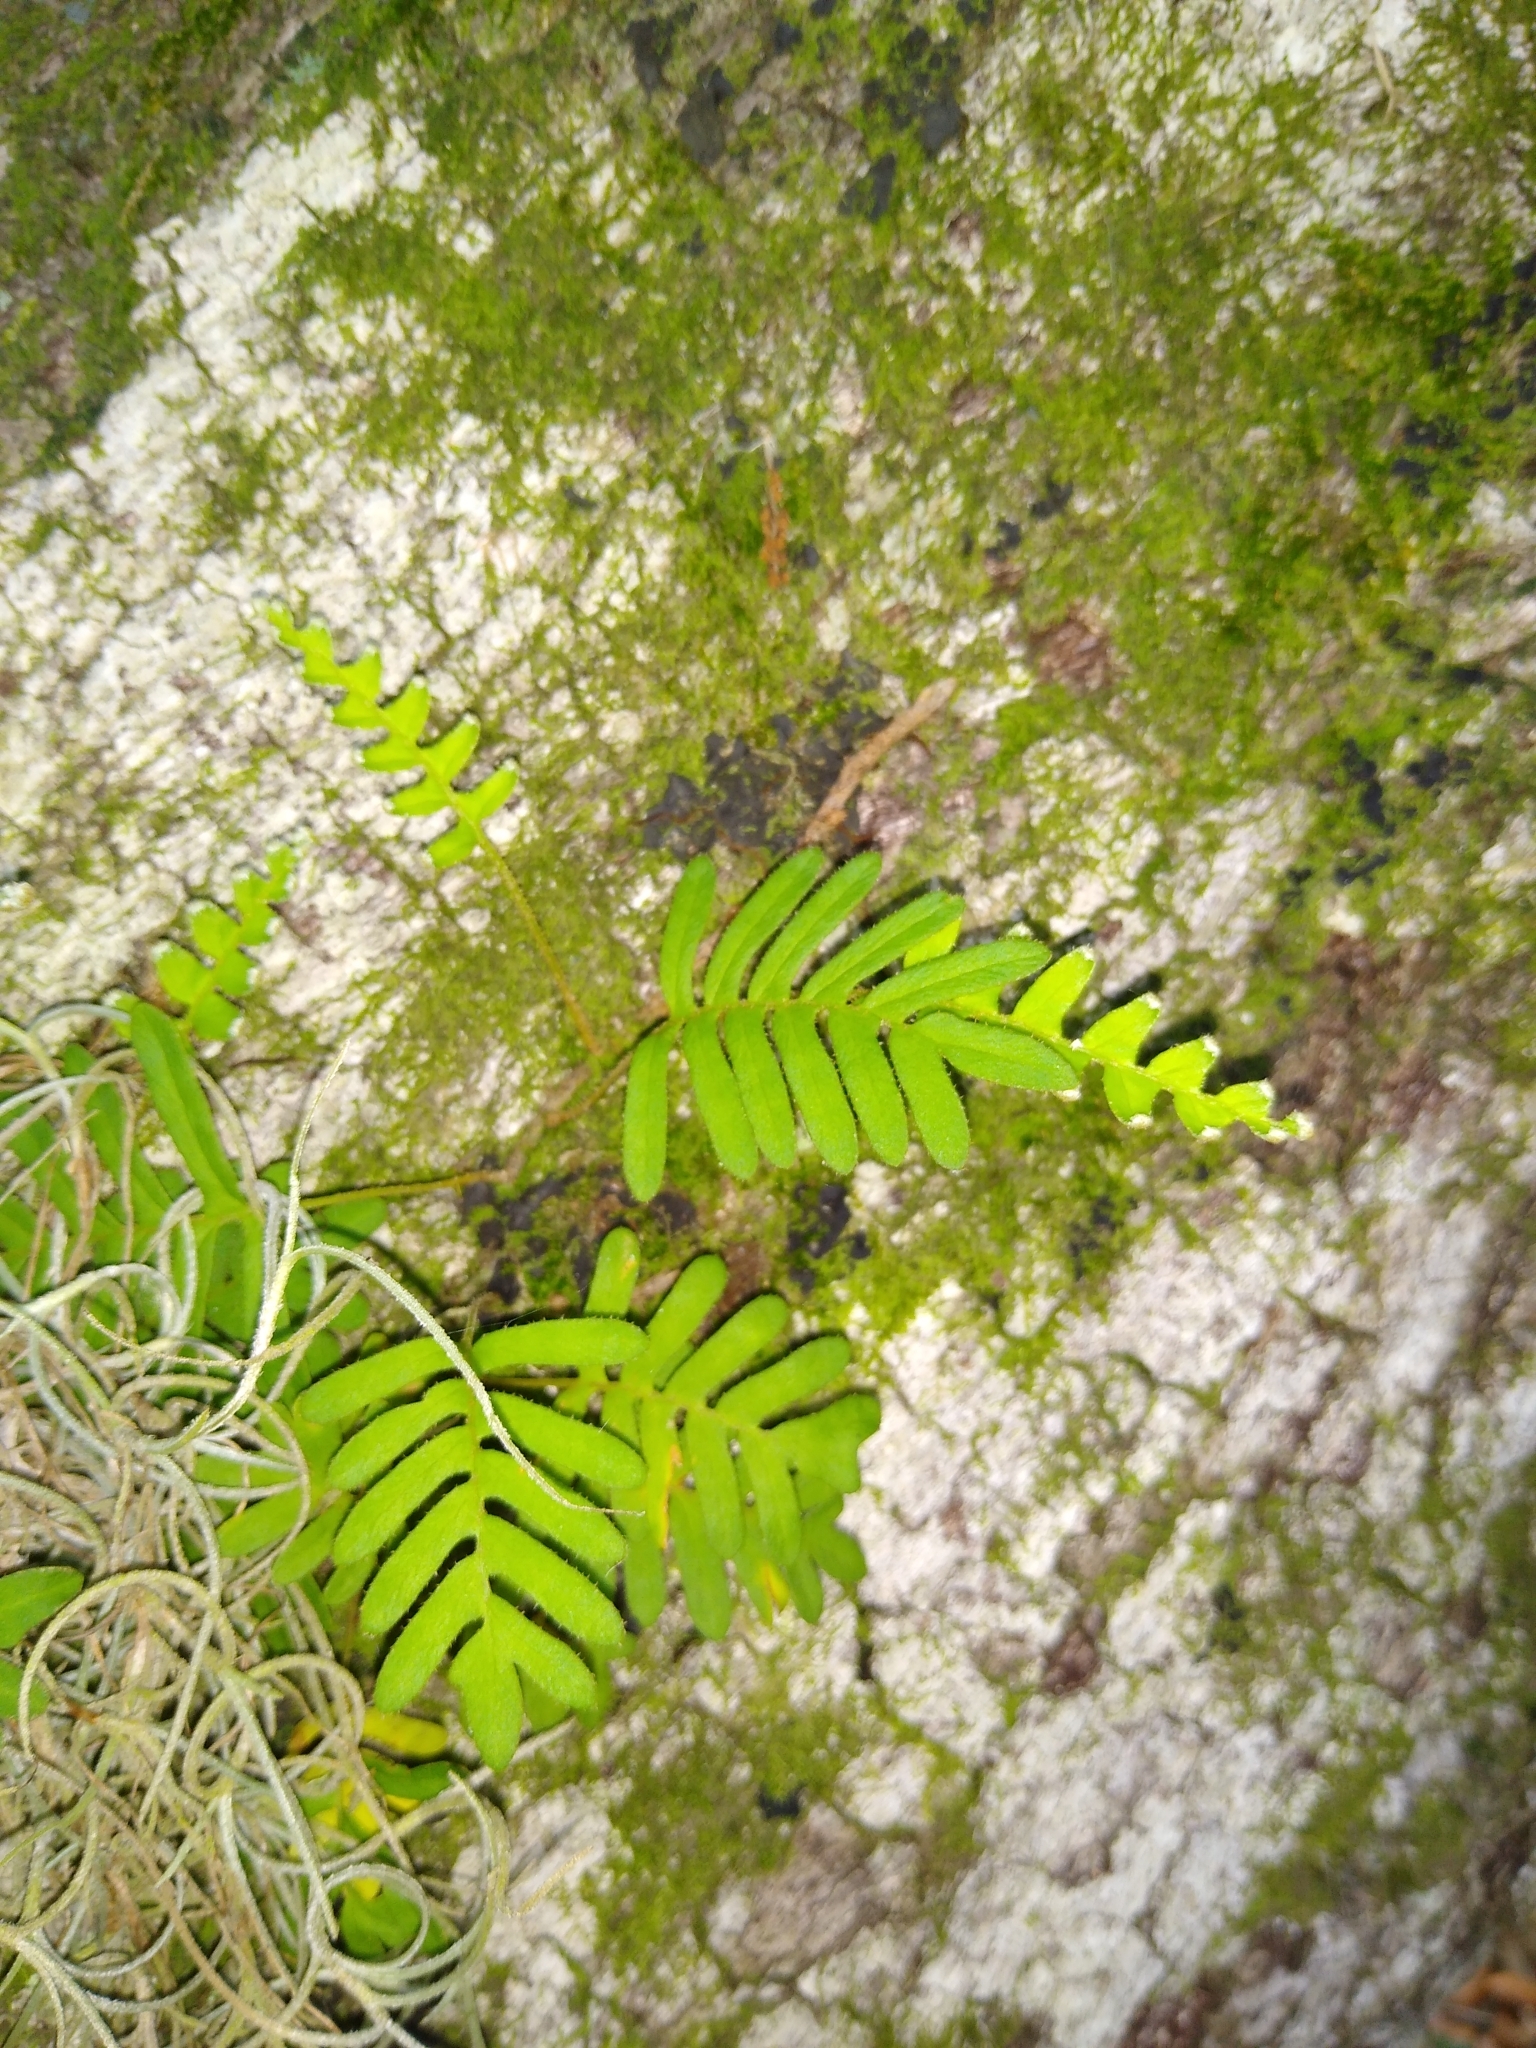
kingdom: Plantae
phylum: Tracheophyta
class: Polypodiopsida
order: Polypodiales
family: Polypodiaceae
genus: Pleopeltis
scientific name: Pleopeltis michauxiana
